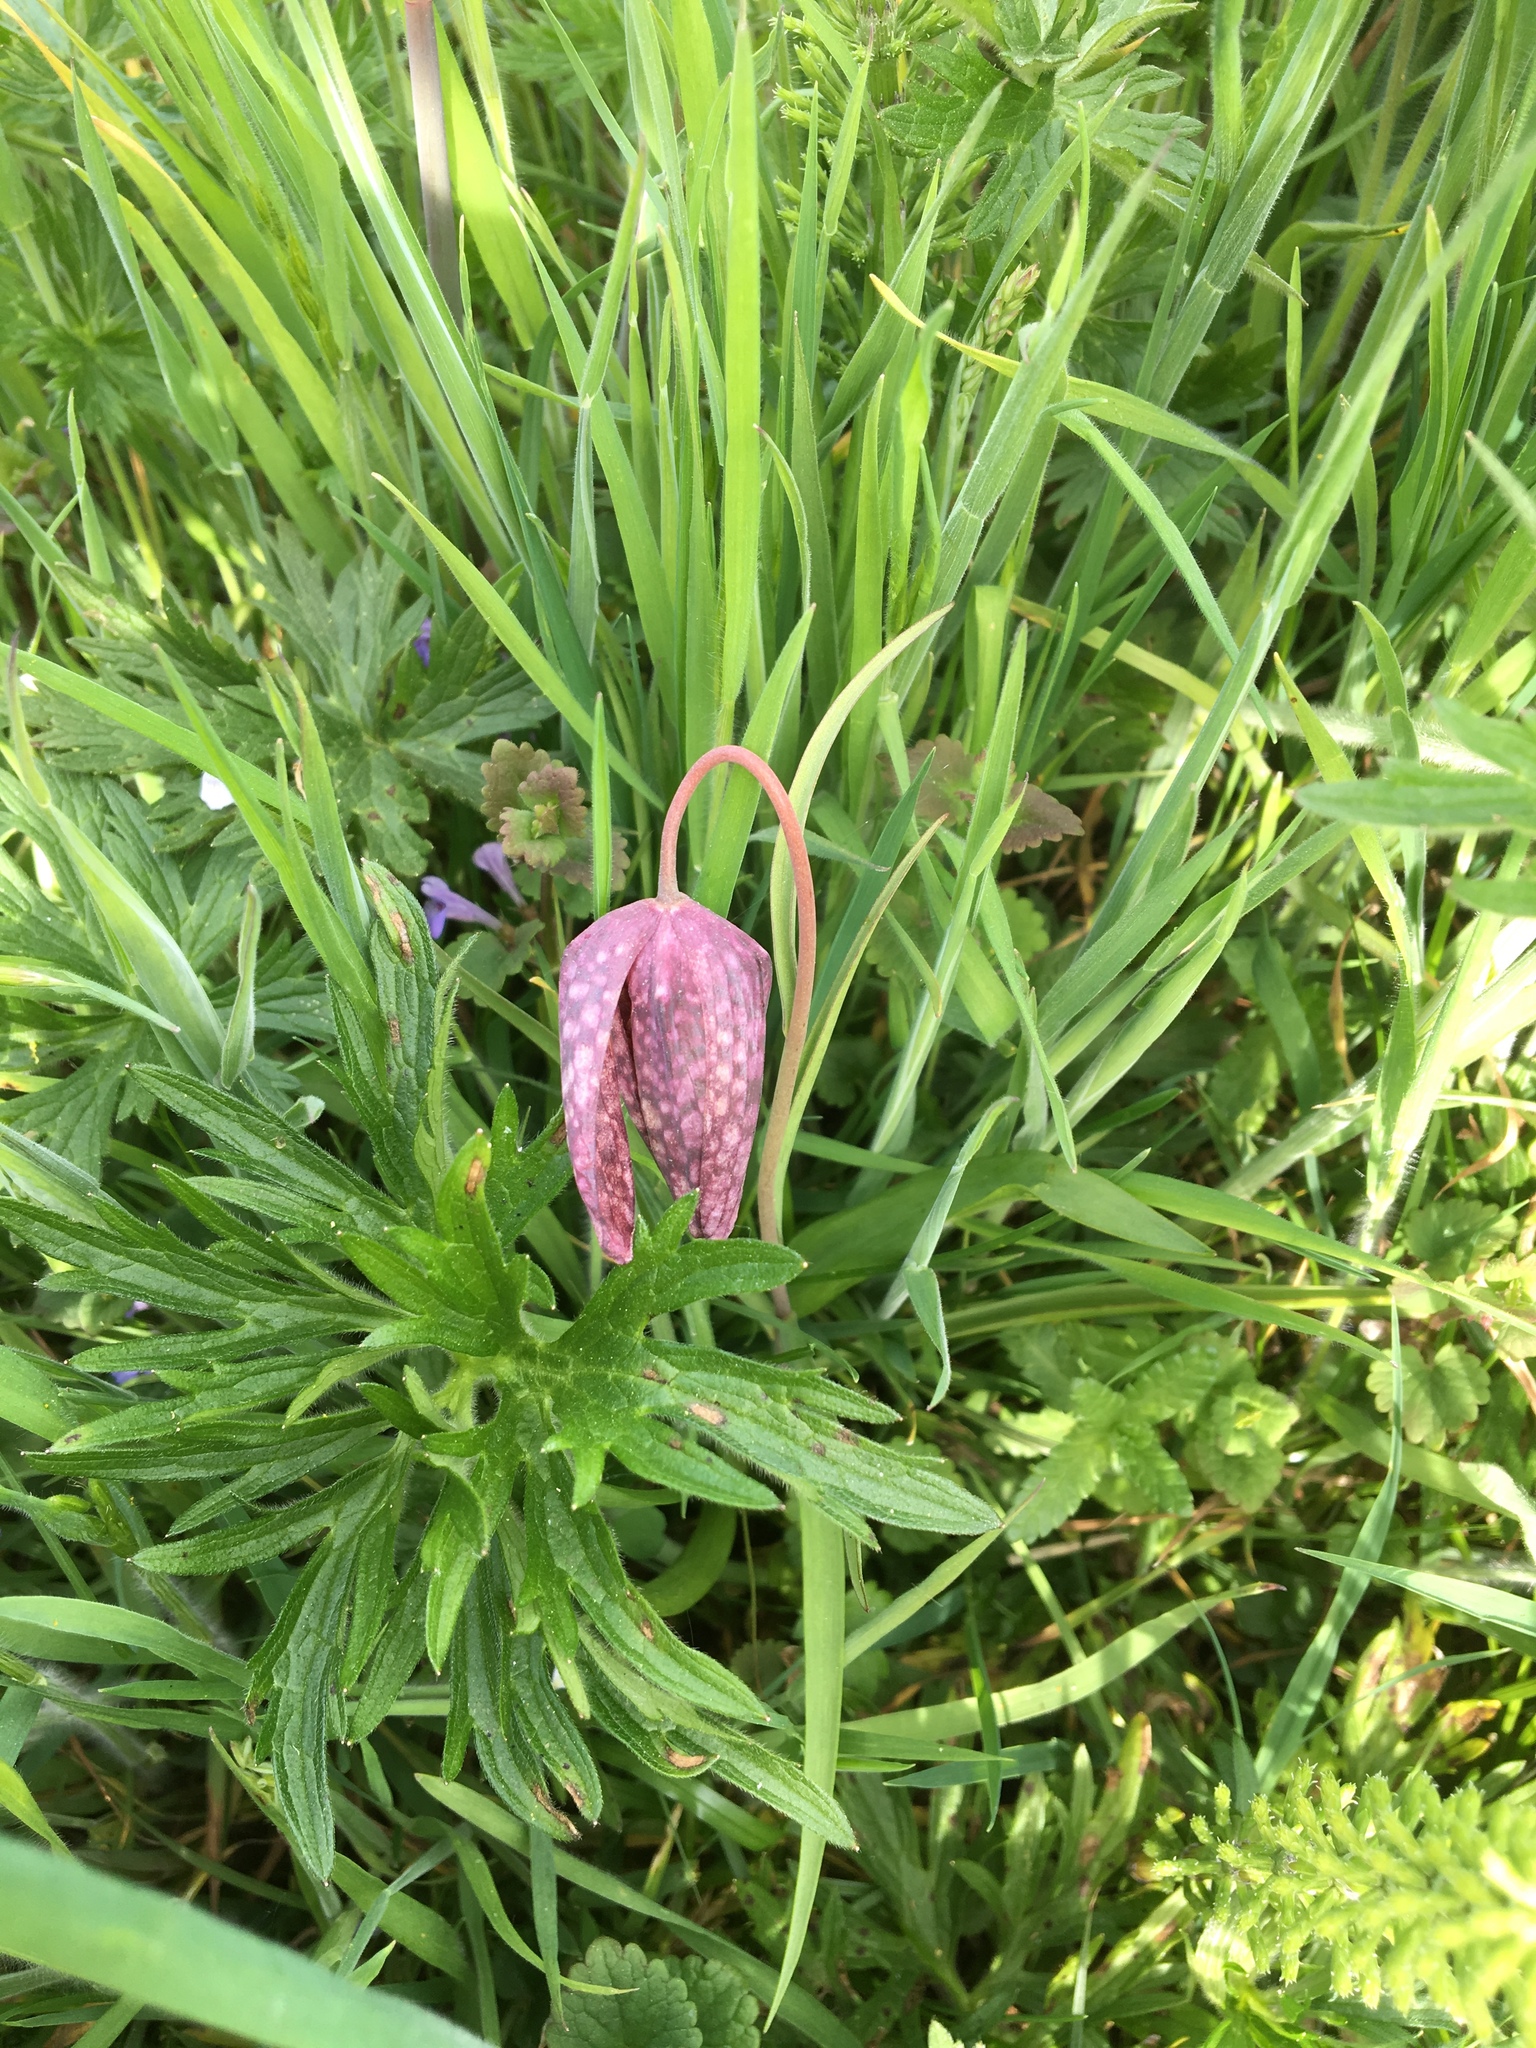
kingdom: Plantae
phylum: Tracheophyta
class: Liliopsida
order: Liliales
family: Liliaceae
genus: Fritillaria
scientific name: Fritillaria meleagris
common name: Fritillary
